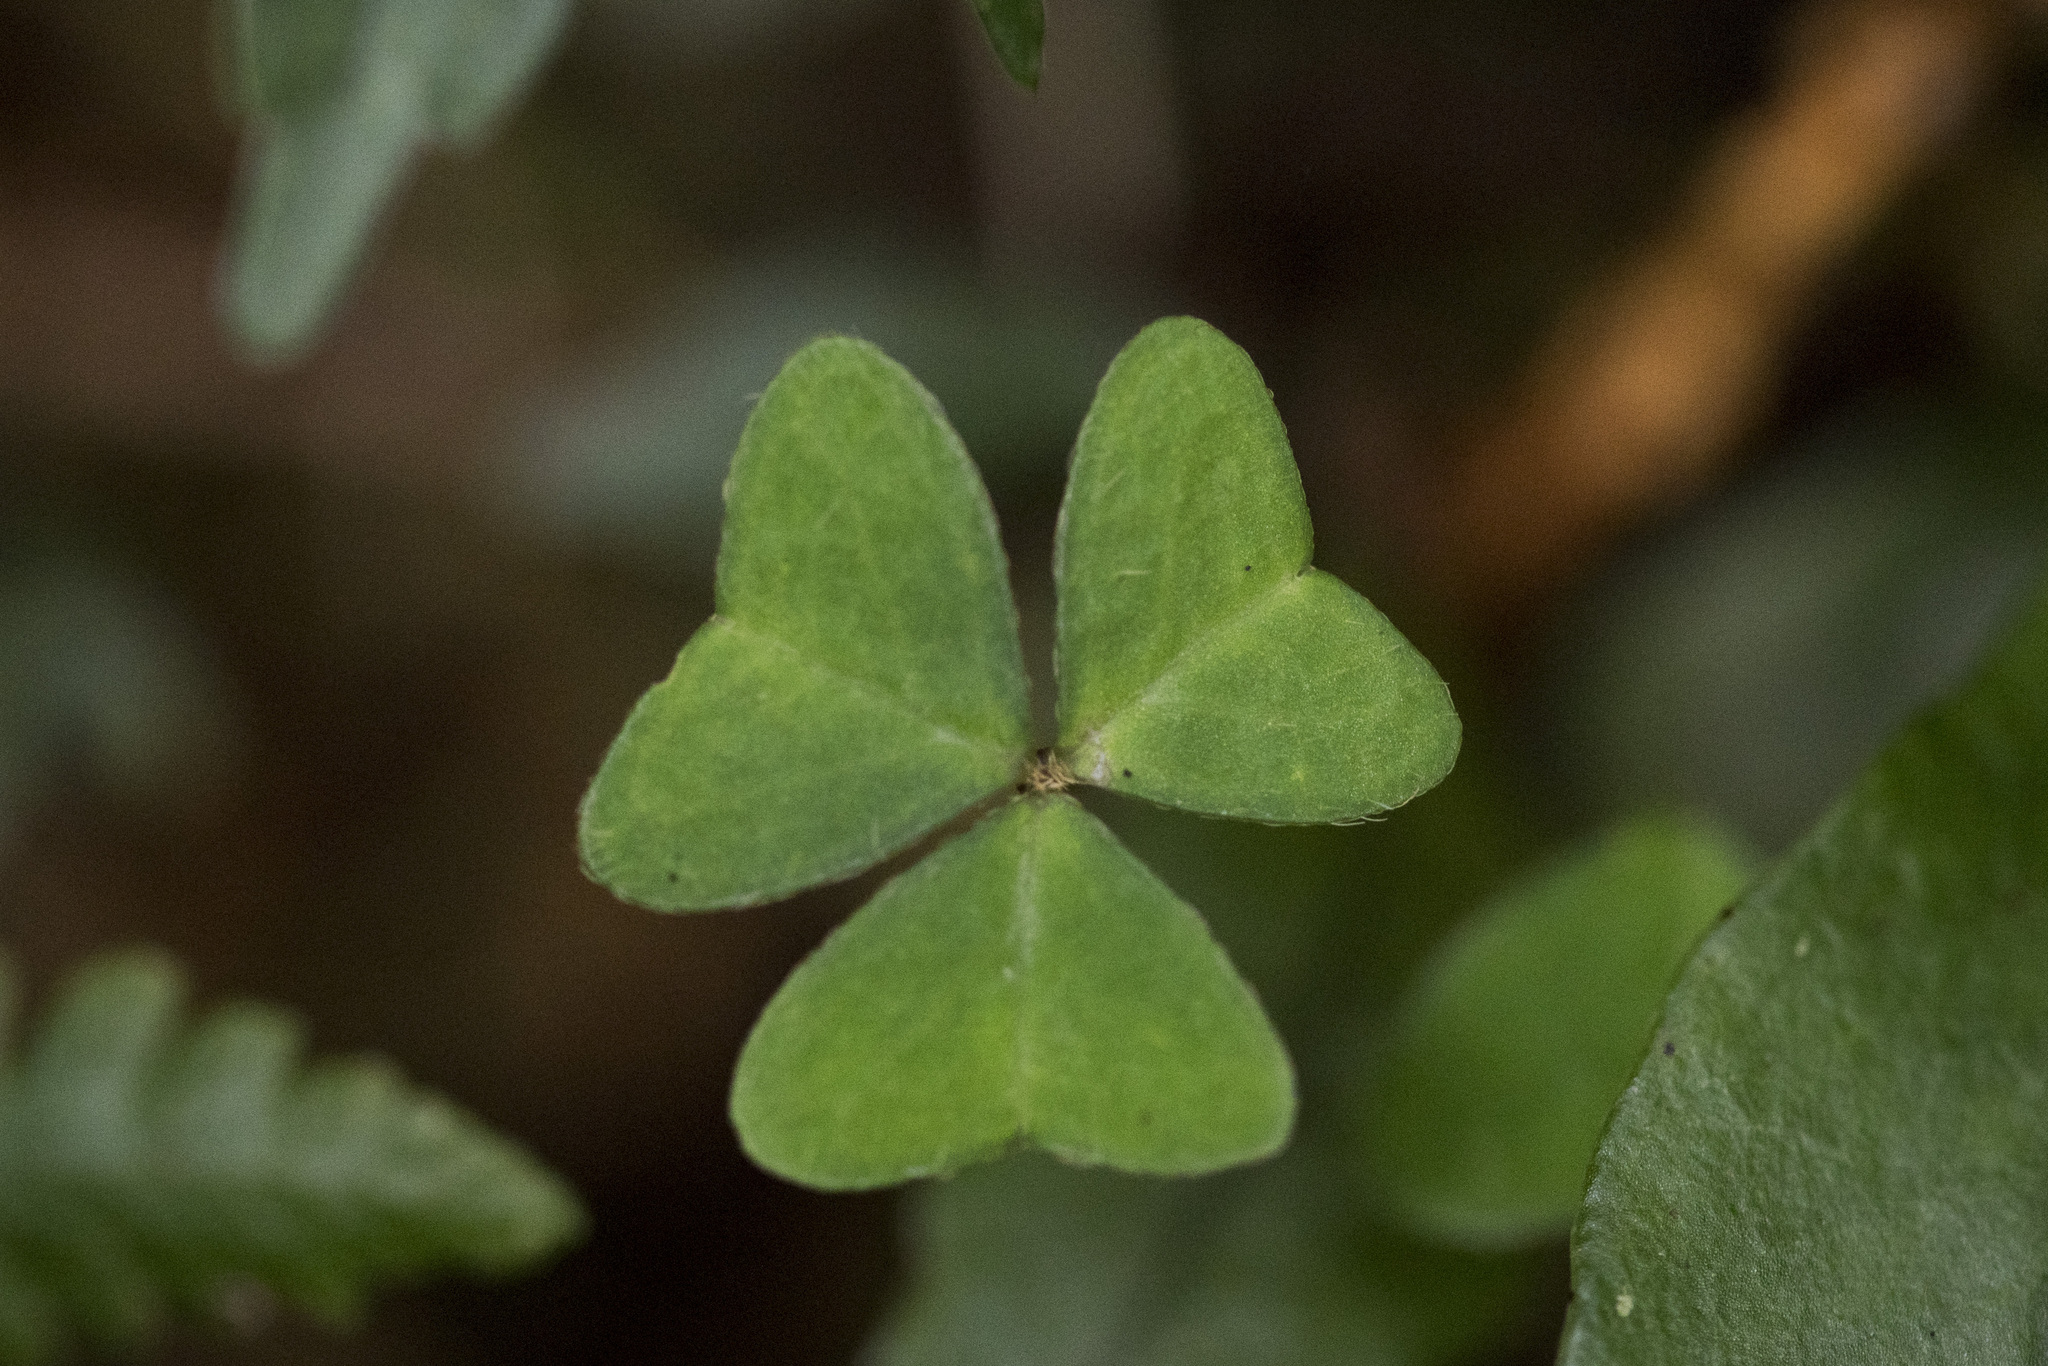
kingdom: Plantae
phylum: Tracheophyta
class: Magnoliopsida
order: Oxalidales
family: Oxalidaceae
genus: Oxalis
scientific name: Oxalis griffithii
